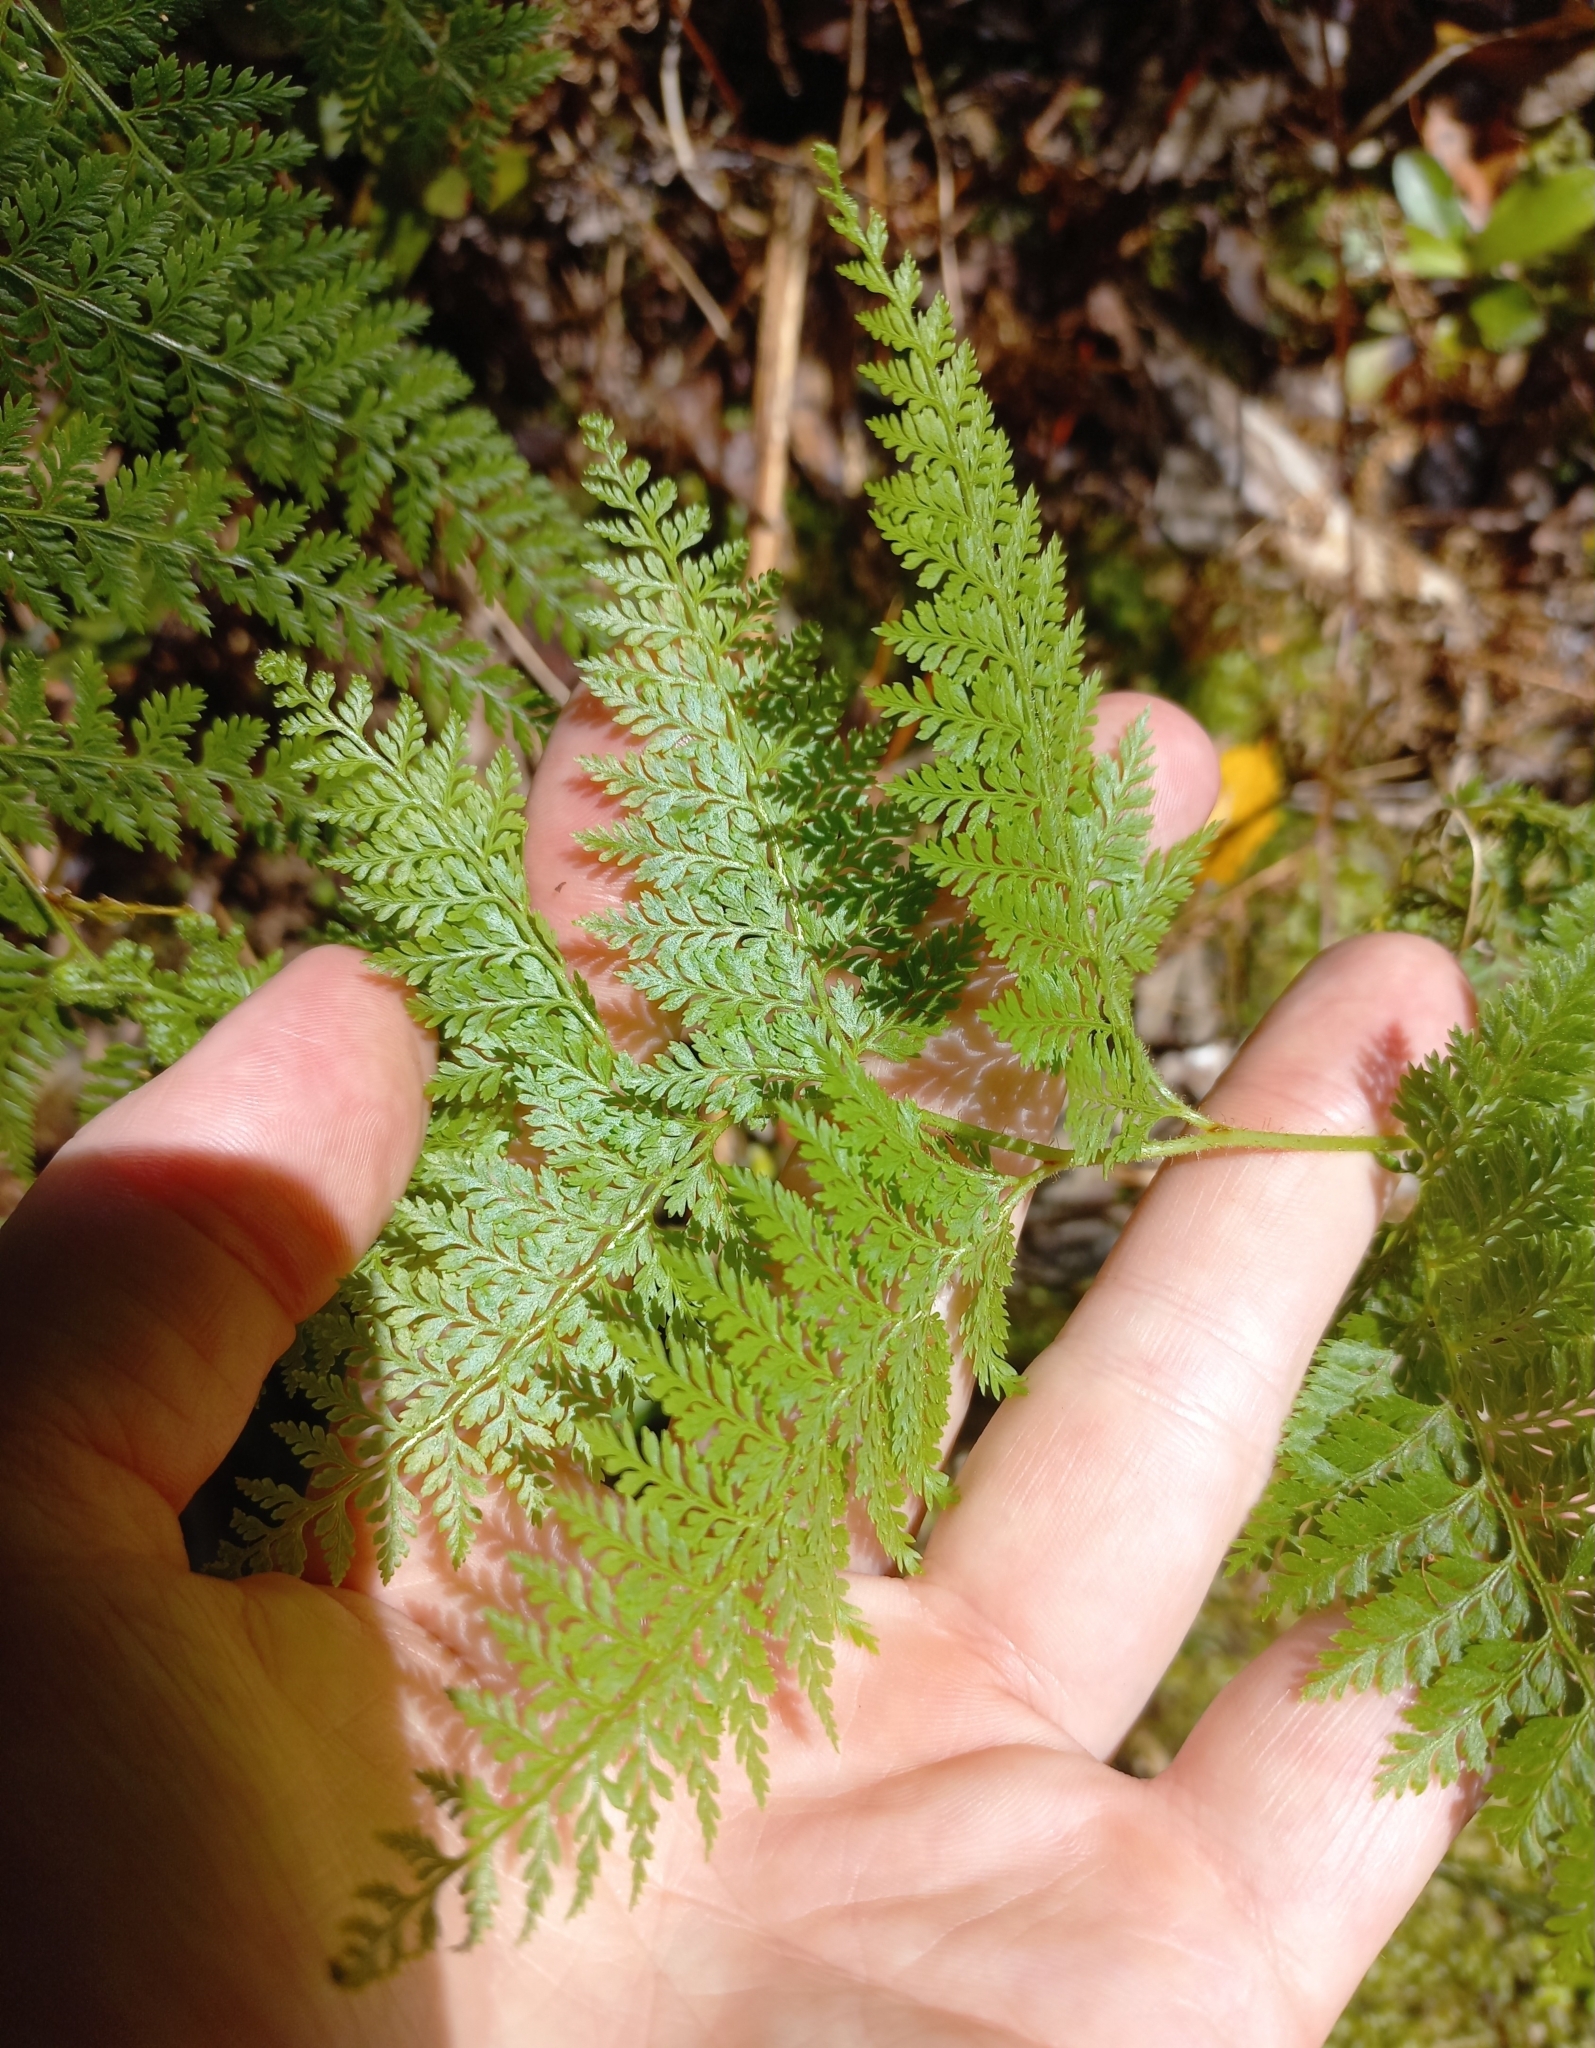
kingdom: Plantae
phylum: Tracheophyta
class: Polypodiopsida
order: Polypodiales
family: Dennstaedtiaceae
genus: Paesia
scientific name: Paesia scaberula
